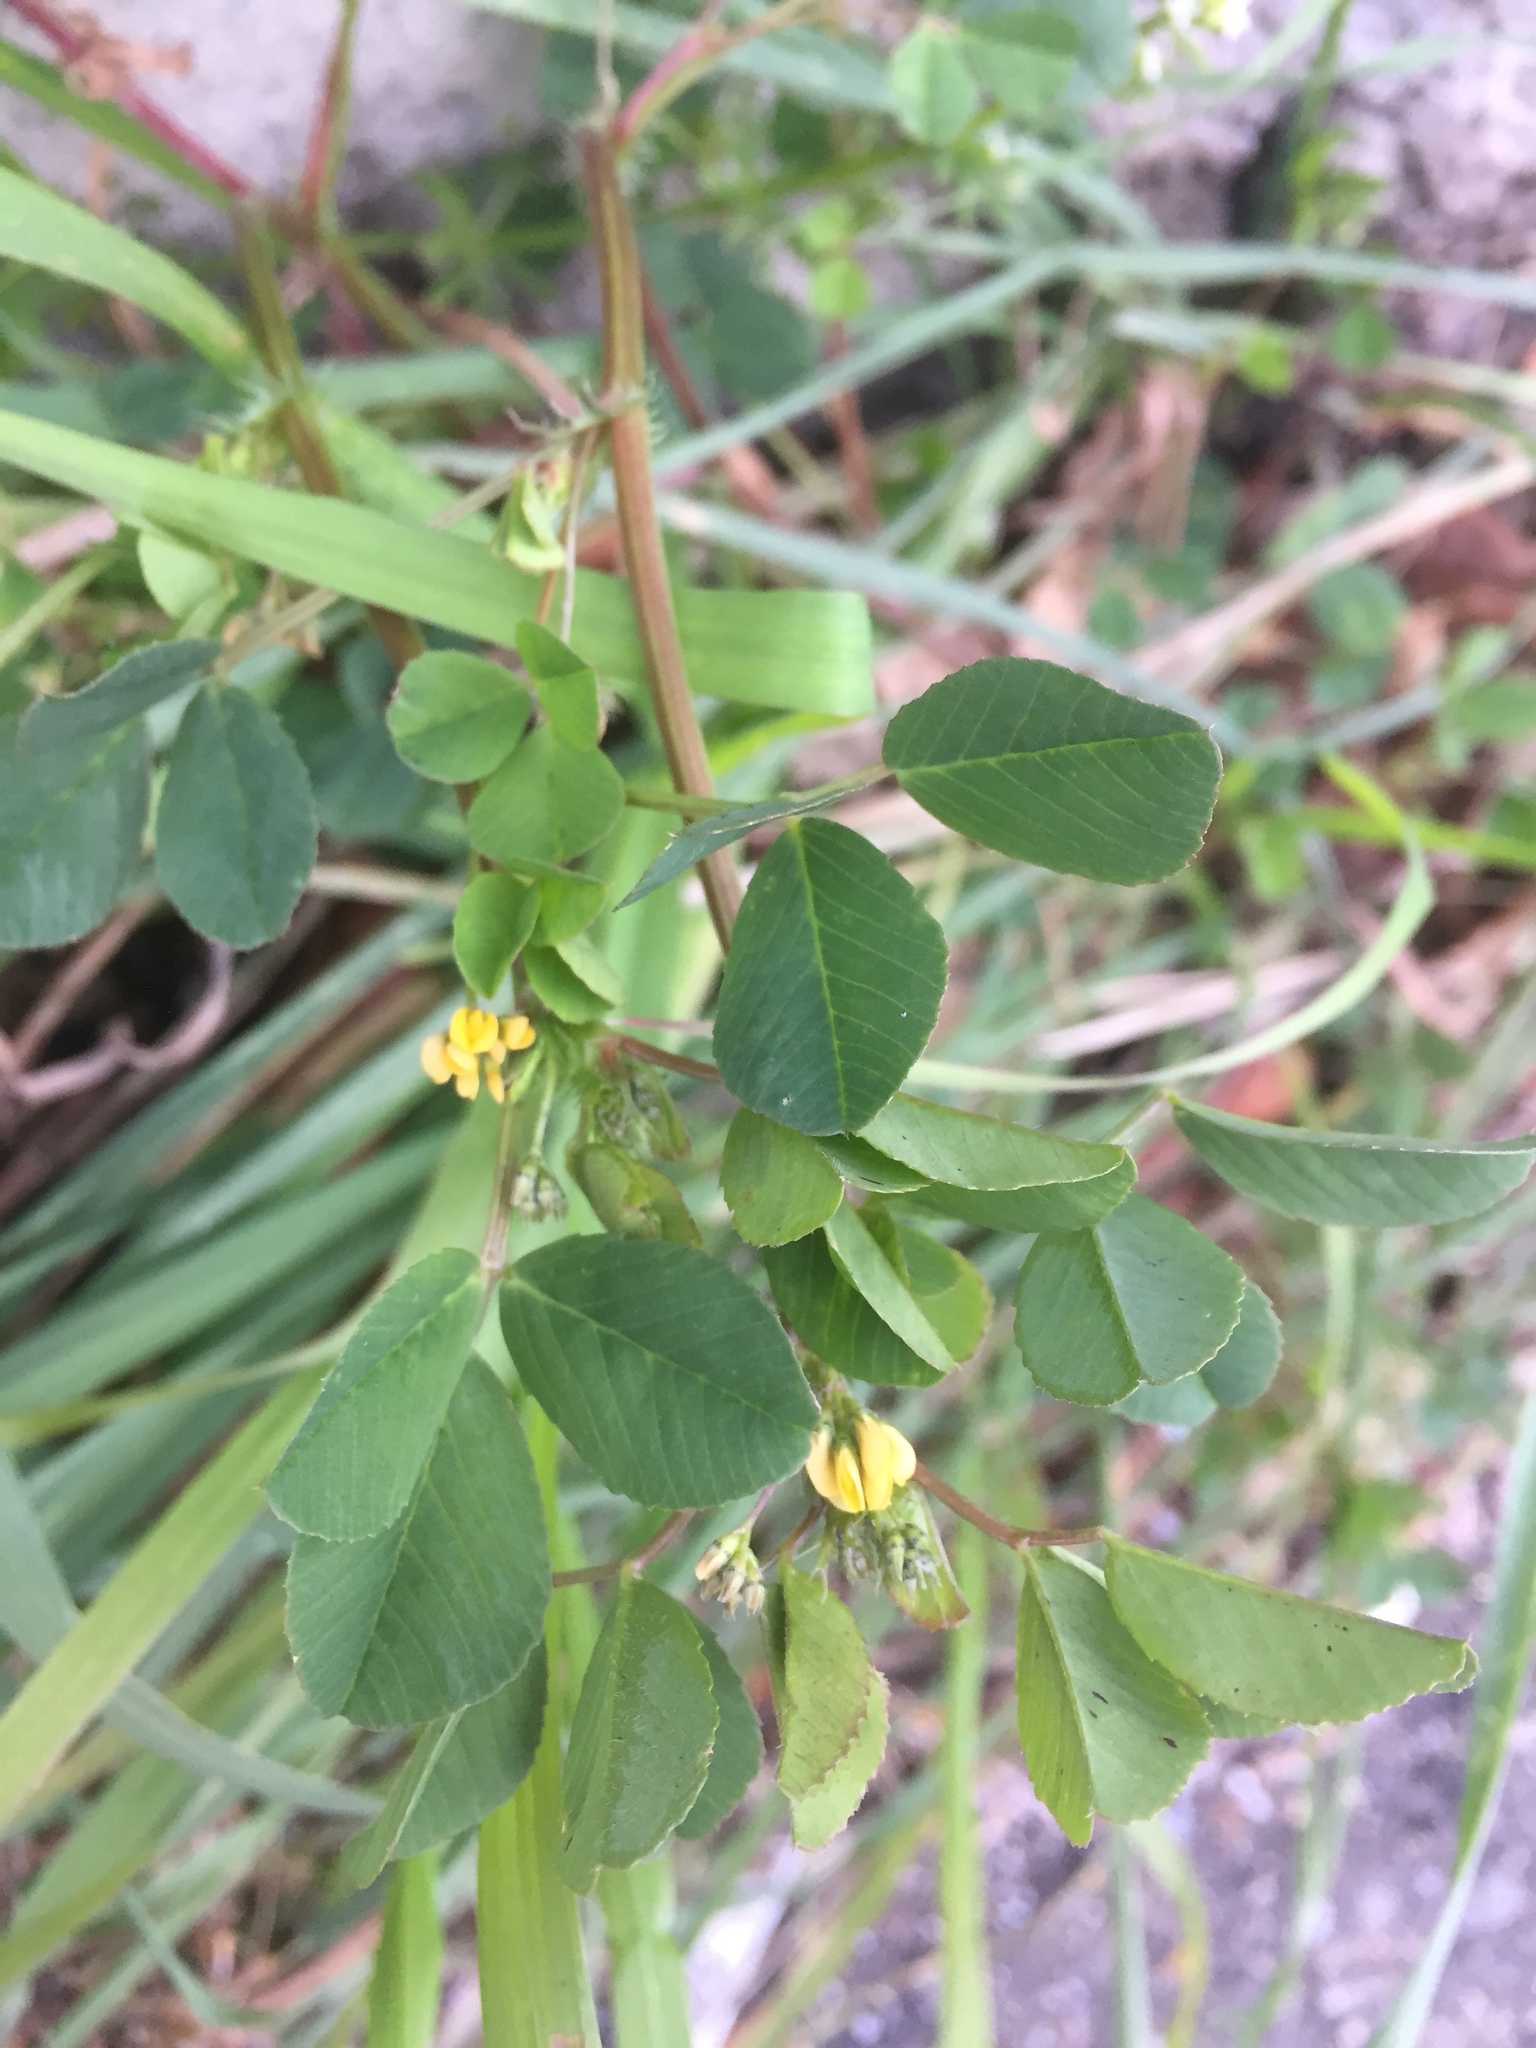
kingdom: Plantae
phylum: Tracheophyta
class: Magnoliopsida
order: Fabales
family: Fabaceae
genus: Medicago
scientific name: Medicago polymorpha
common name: Burclover
